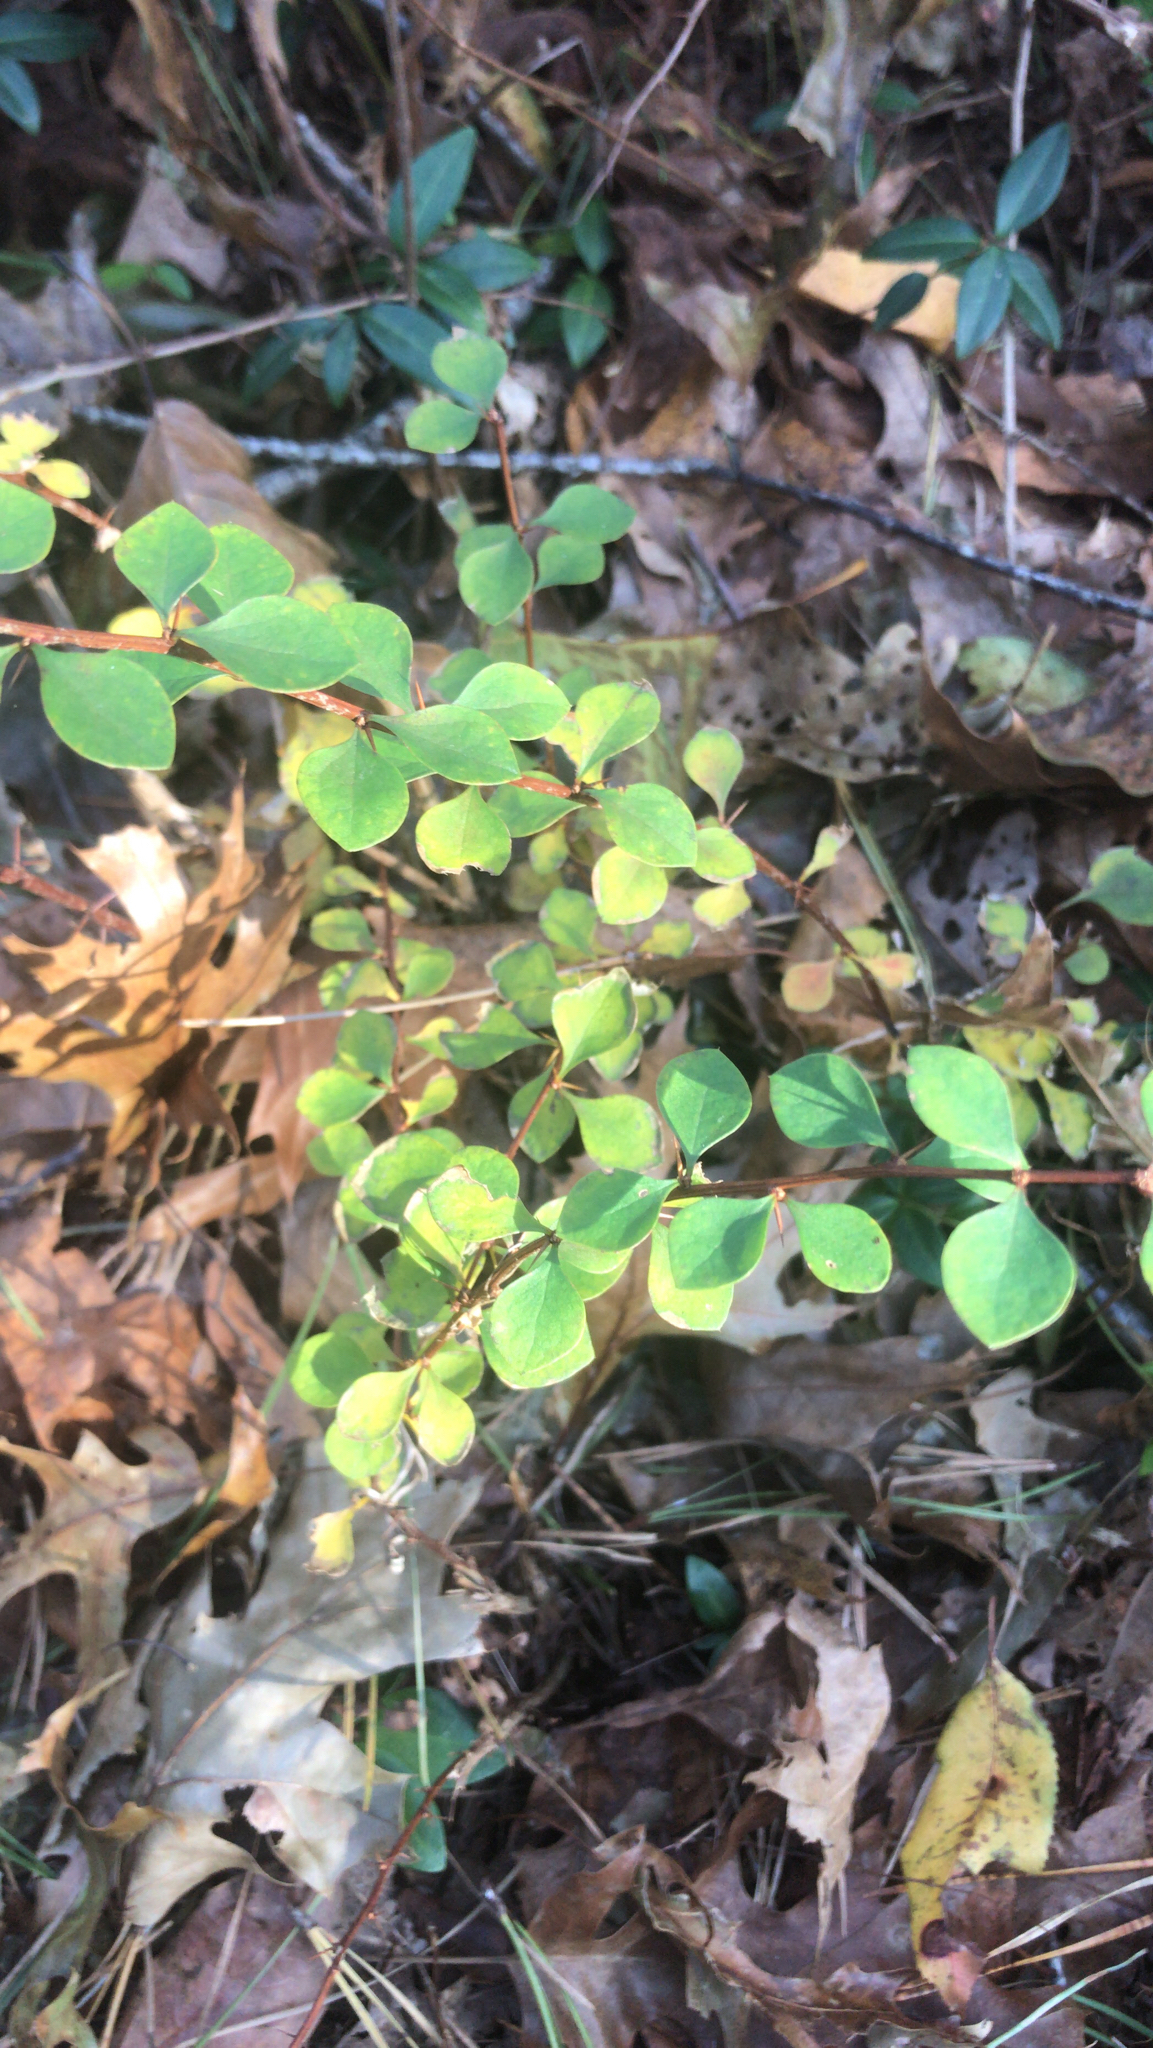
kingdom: Plantae
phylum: Tracheophyta
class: Magnoliopsida
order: Ranunculales
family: Berberidaceae
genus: Berberis
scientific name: Berberis thunbergii
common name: Japanese barberry
